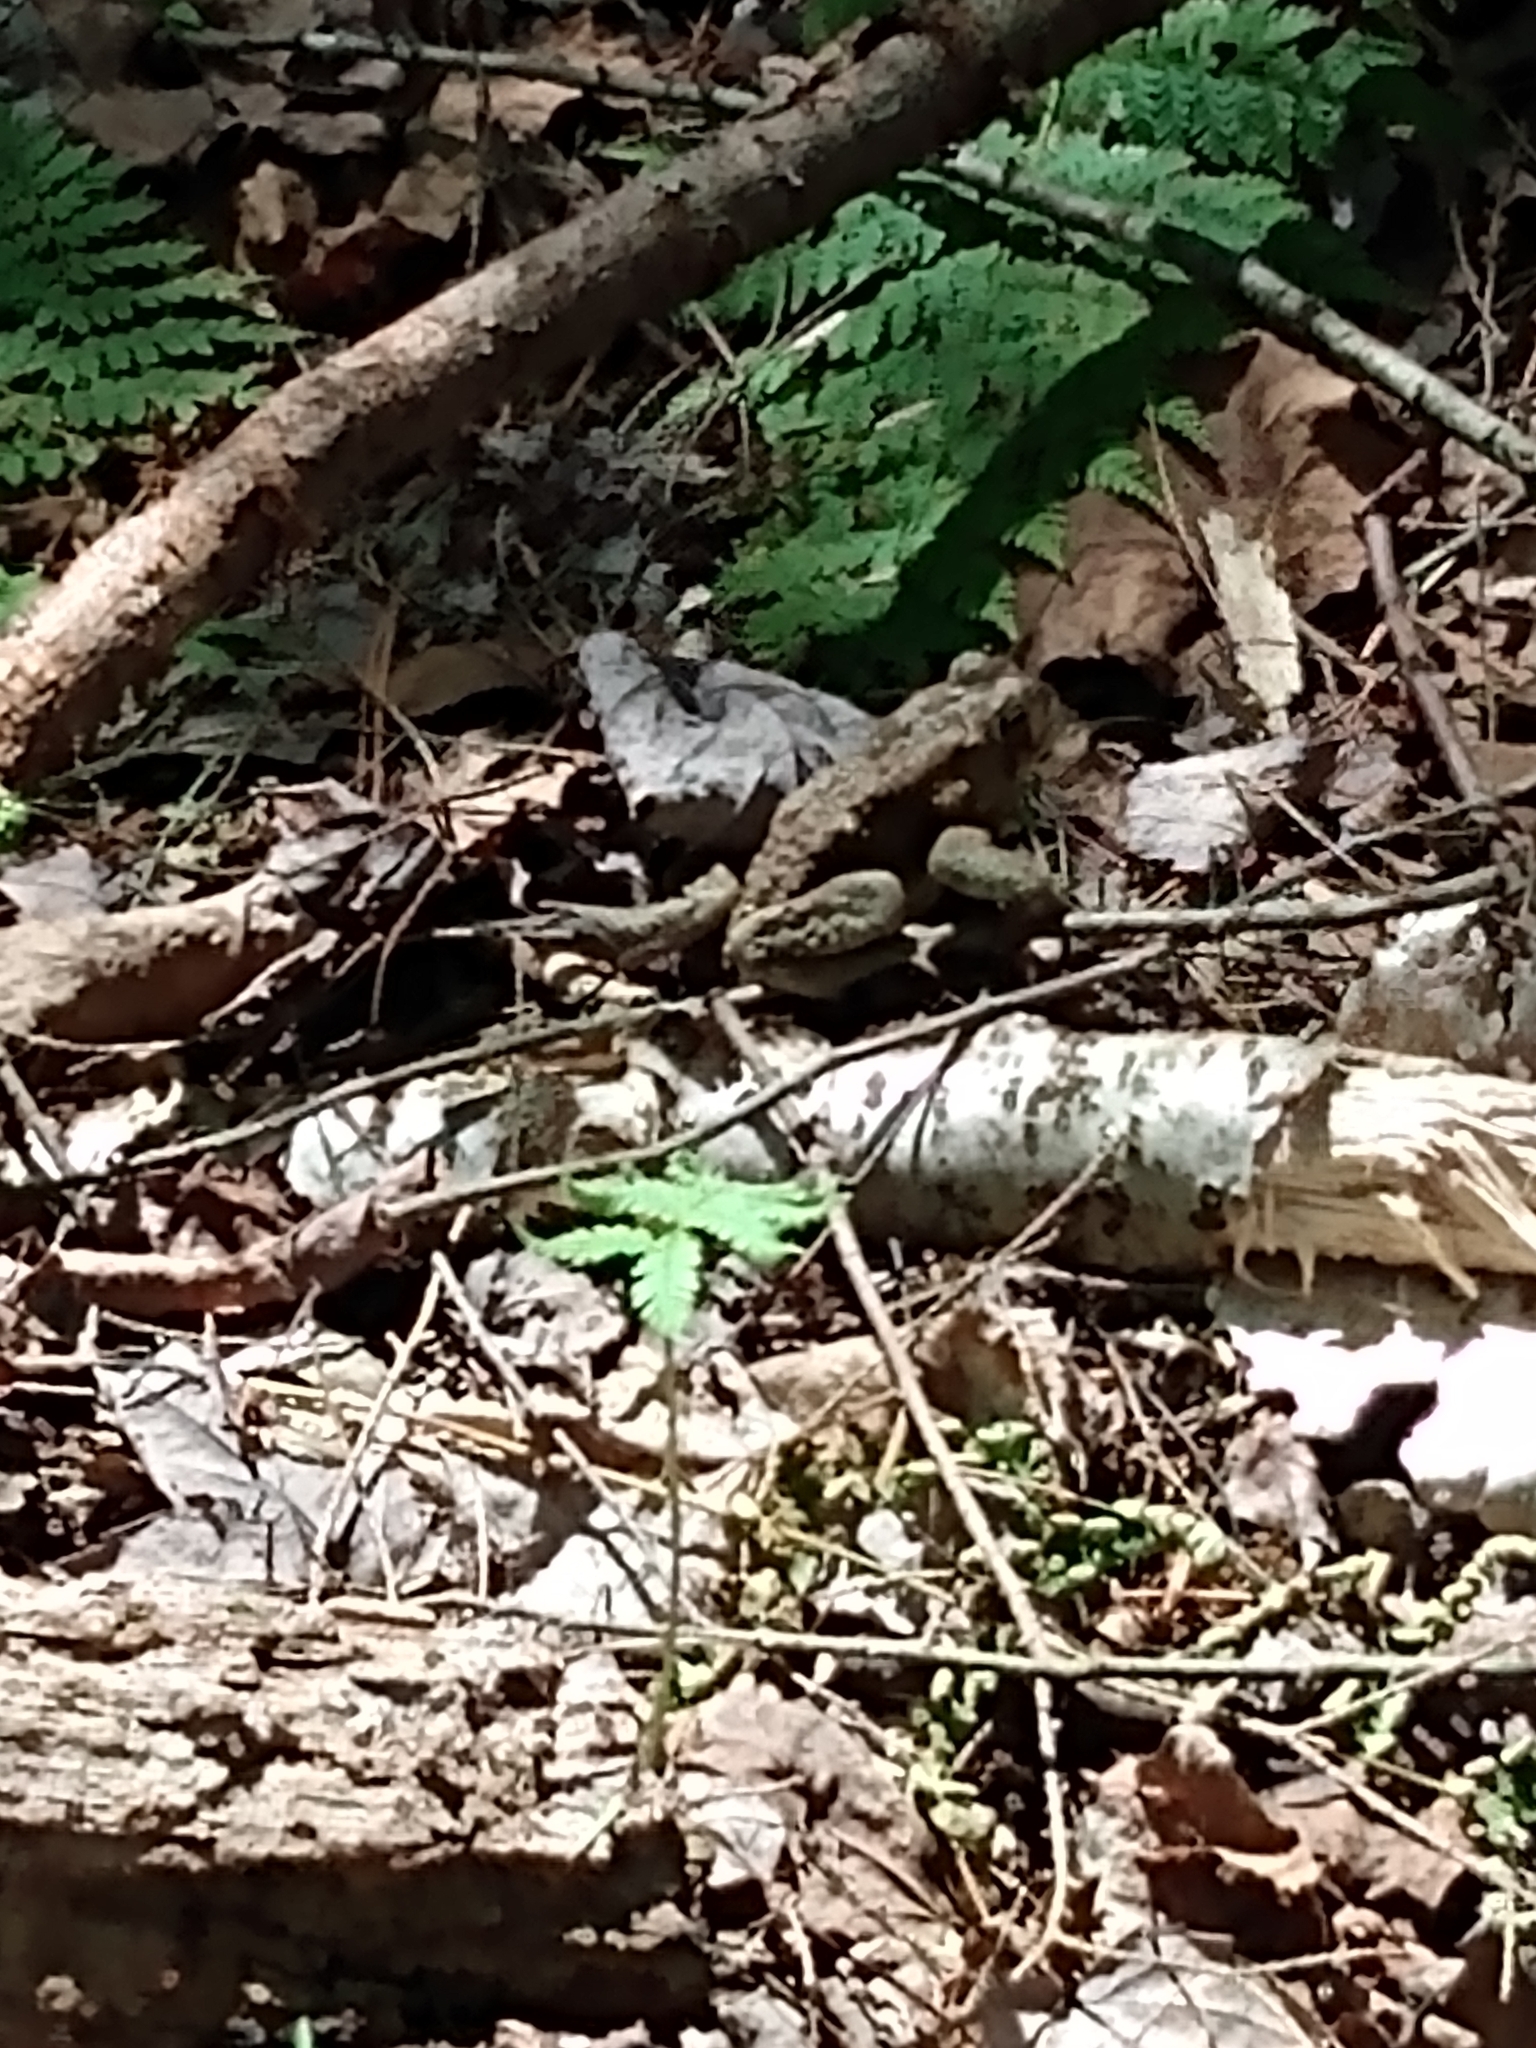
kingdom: Animalia
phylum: Chordata
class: Amphibia
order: Anura
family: Bufonidae
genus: Anaxyrus
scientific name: Anaxyrus americanus
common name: American toad
